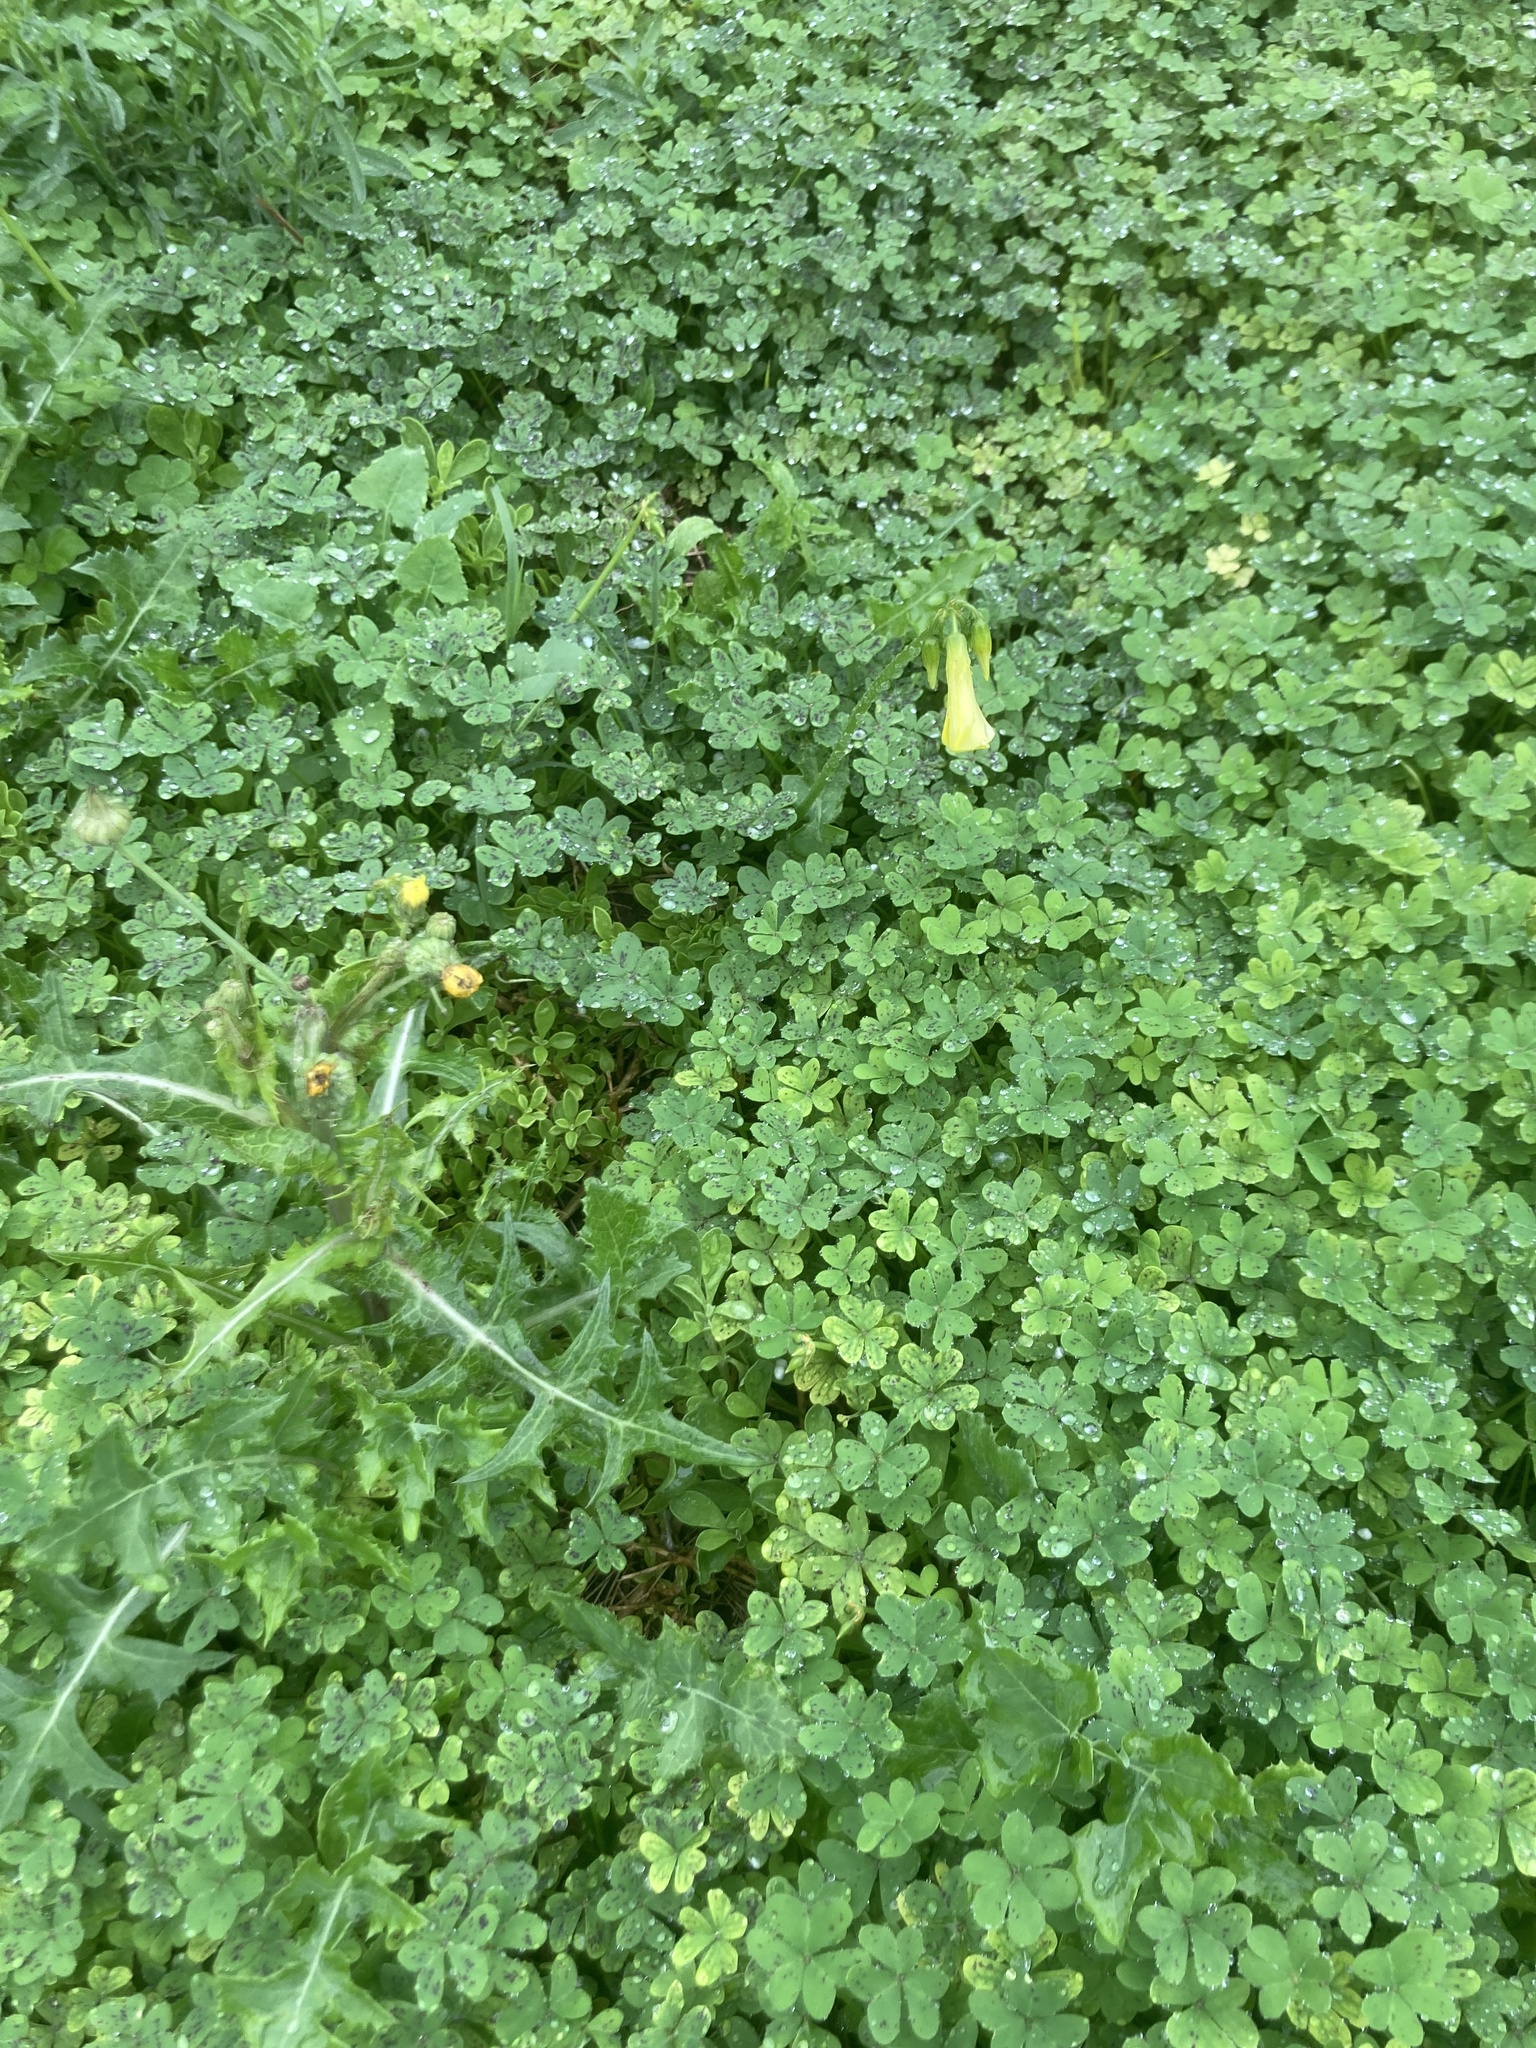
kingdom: Plantae
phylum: Tracheophyta
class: Magnoliopsida
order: Oxalidales
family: Oxalidaceae
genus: Oxalis
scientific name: Oxalis pes-caprae
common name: Bermuda-buttercup
